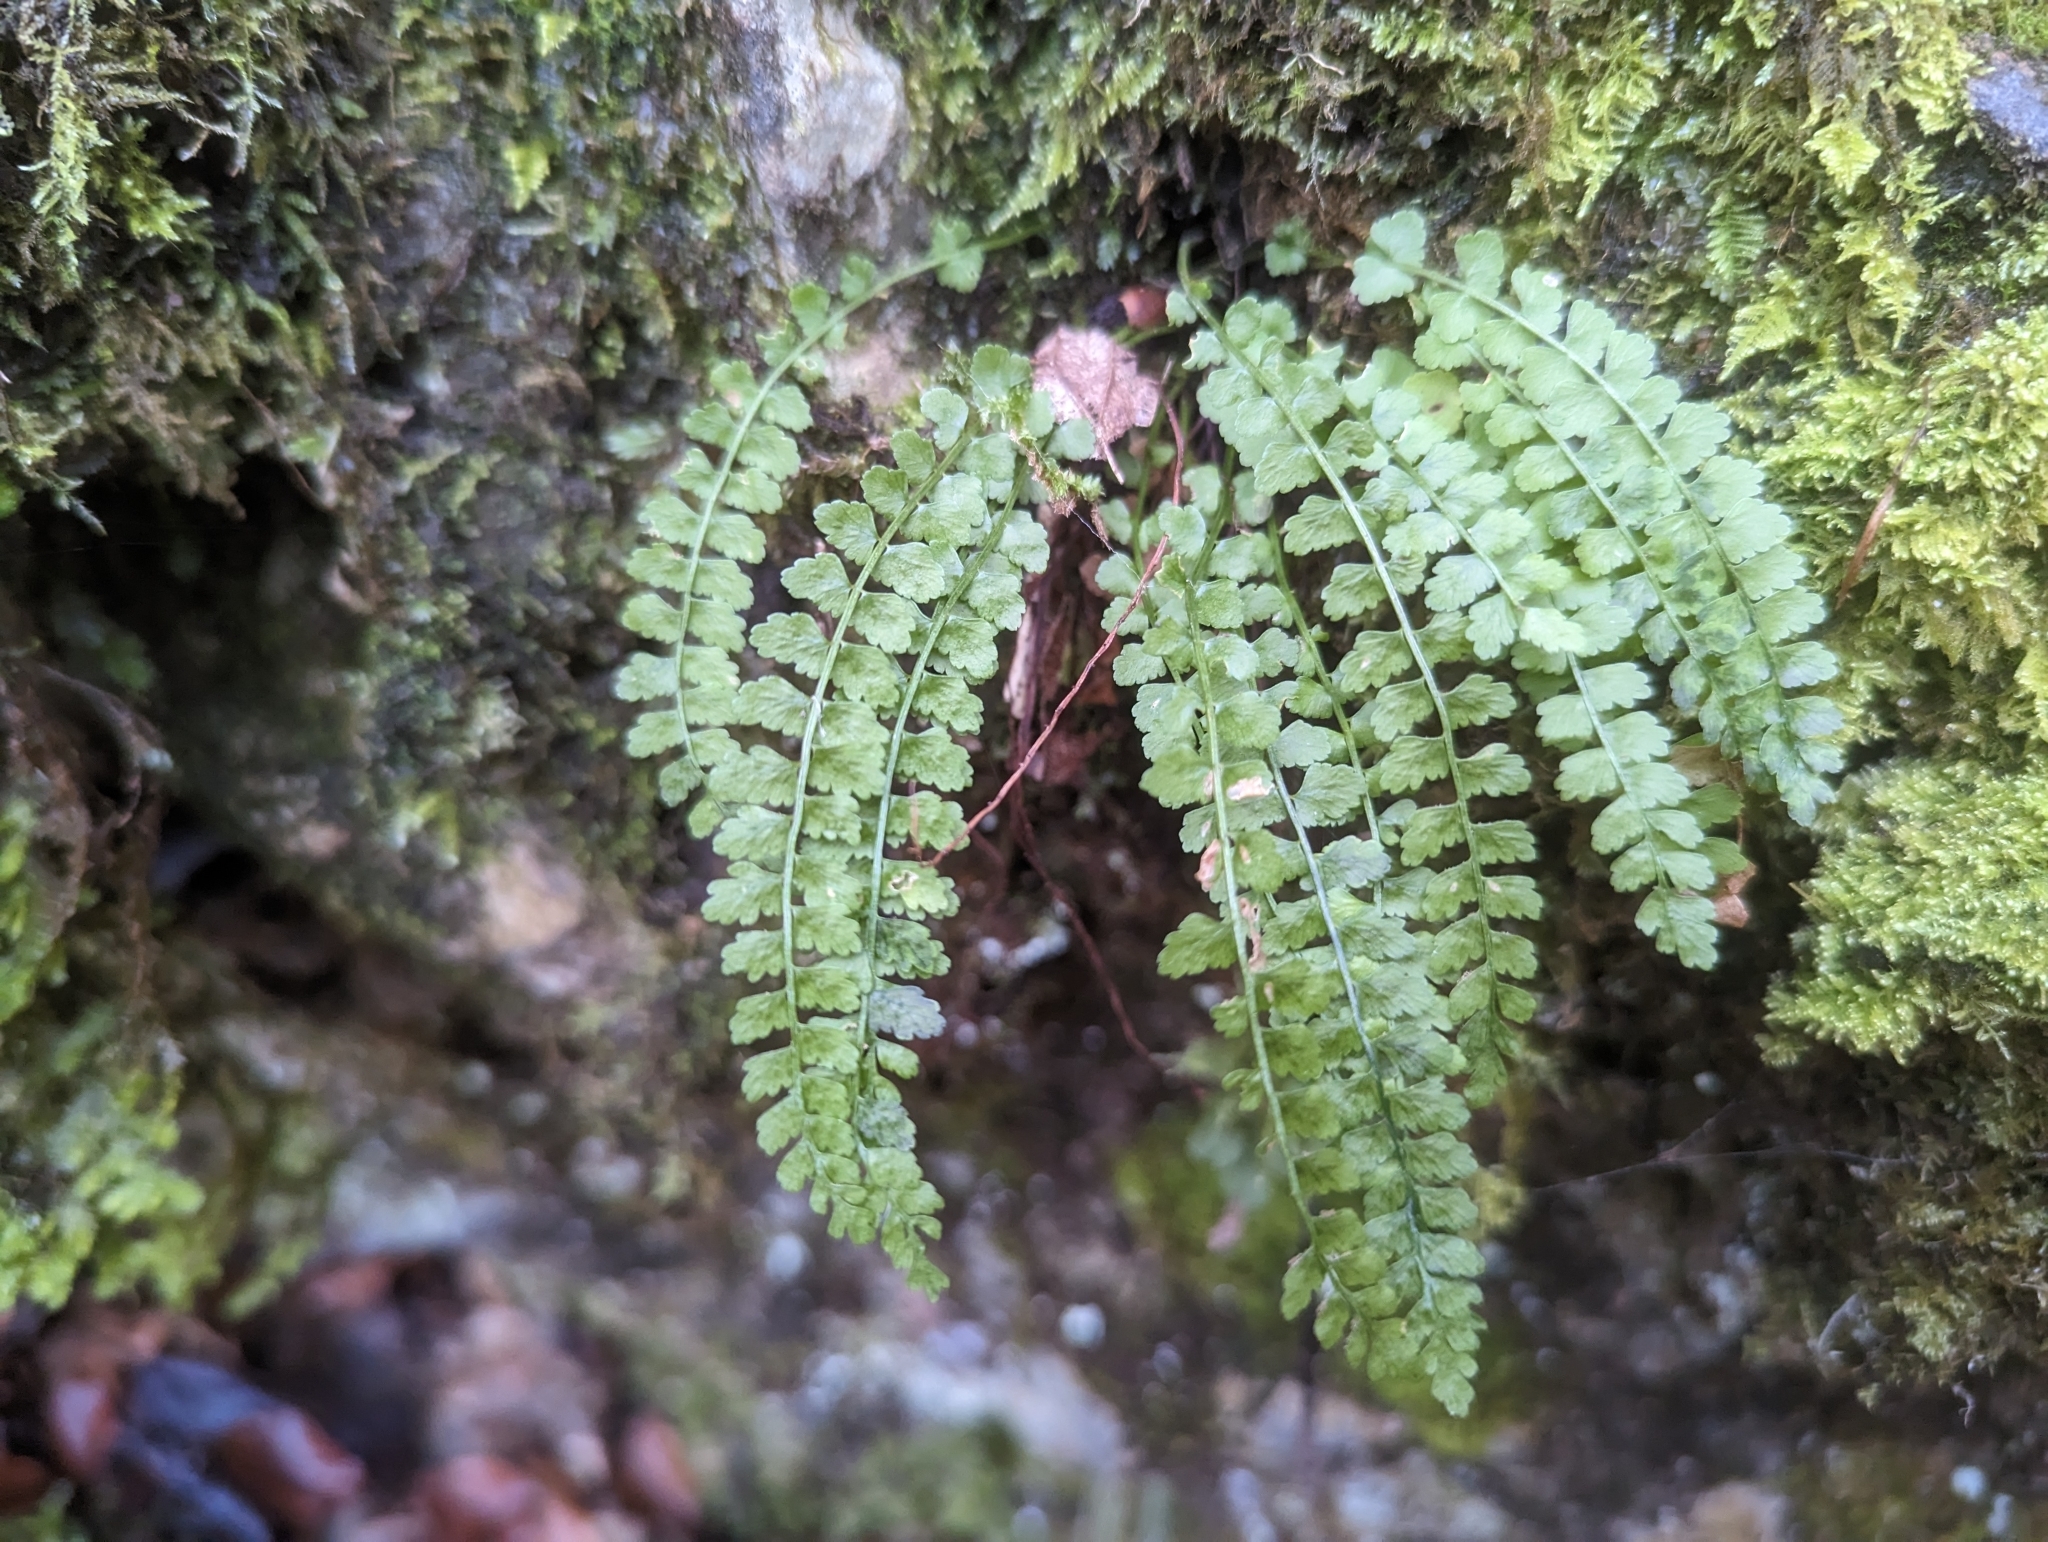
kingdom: Plantae
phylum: Tracheophyta
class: Polypodiopsida
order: Polypodiales
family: Aspleniaceae
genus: Asplenium
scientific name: Asplenium viride
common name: Green spleenwort
